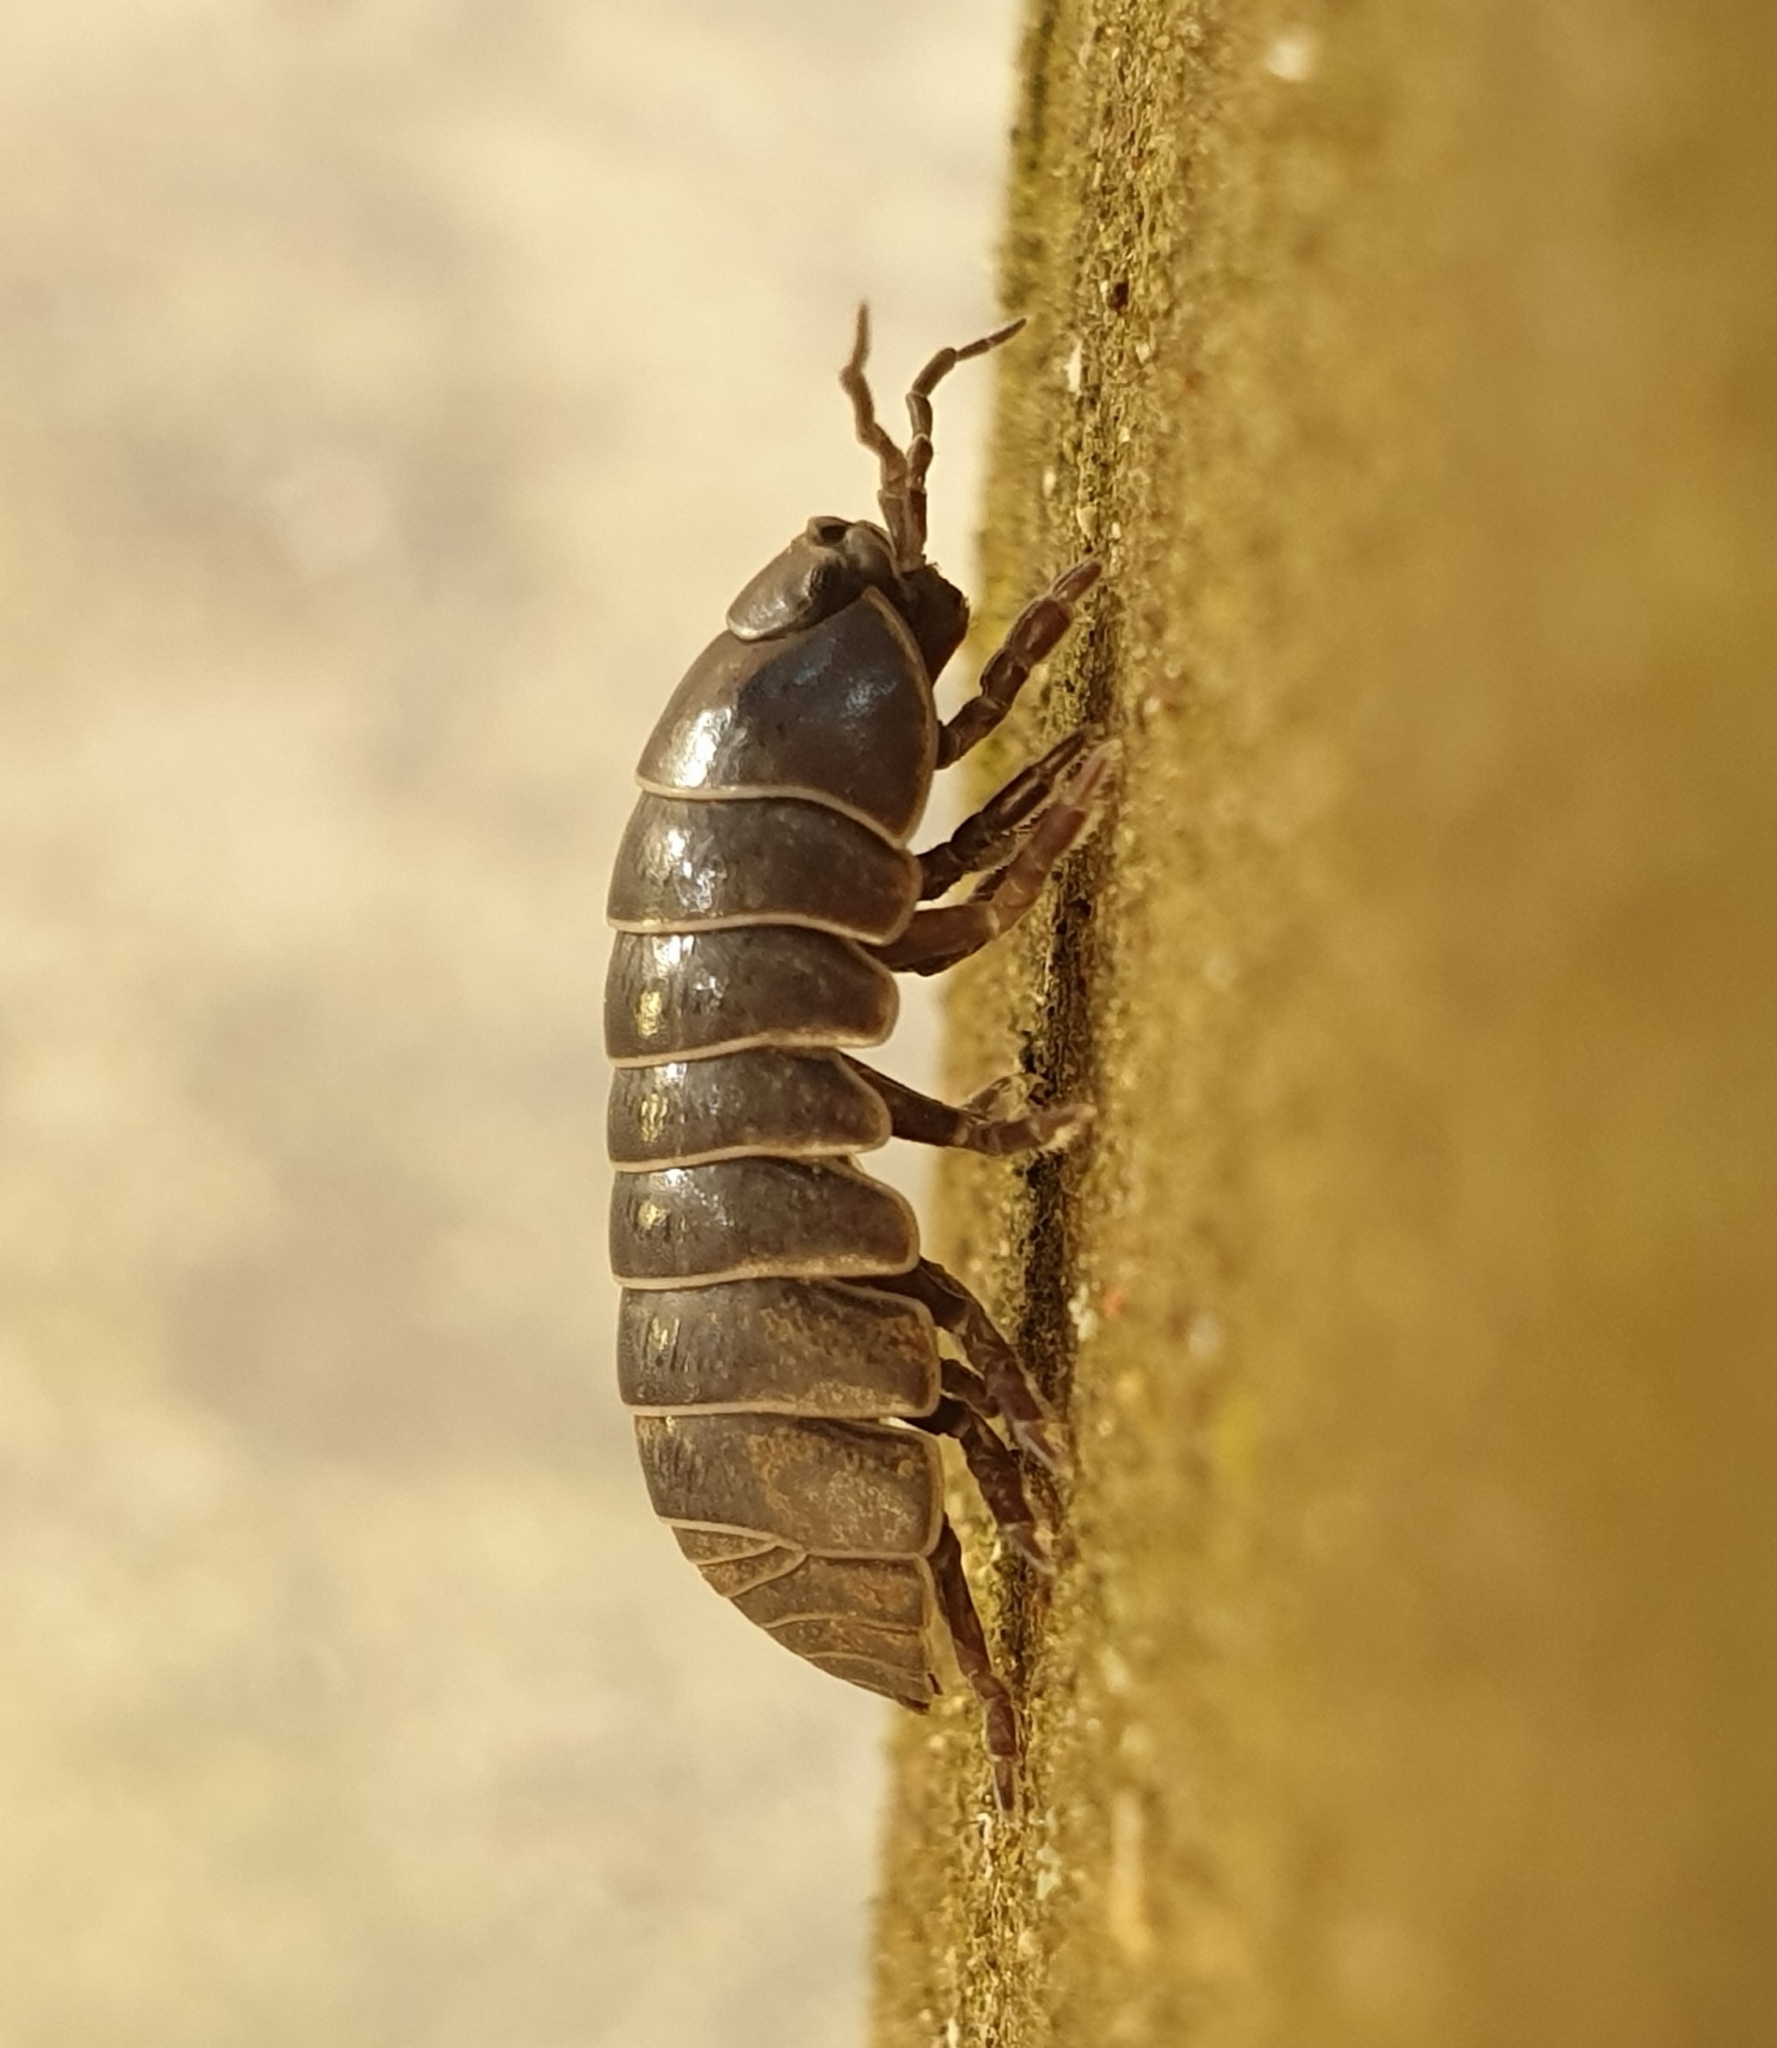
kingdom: Animalia
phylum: Arthropoda
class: Malacostraca
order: Isopoda
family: Armadillidiidae
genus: Armadillidium
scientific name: Armadillidium vulgare
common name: Common pill woodlouse
